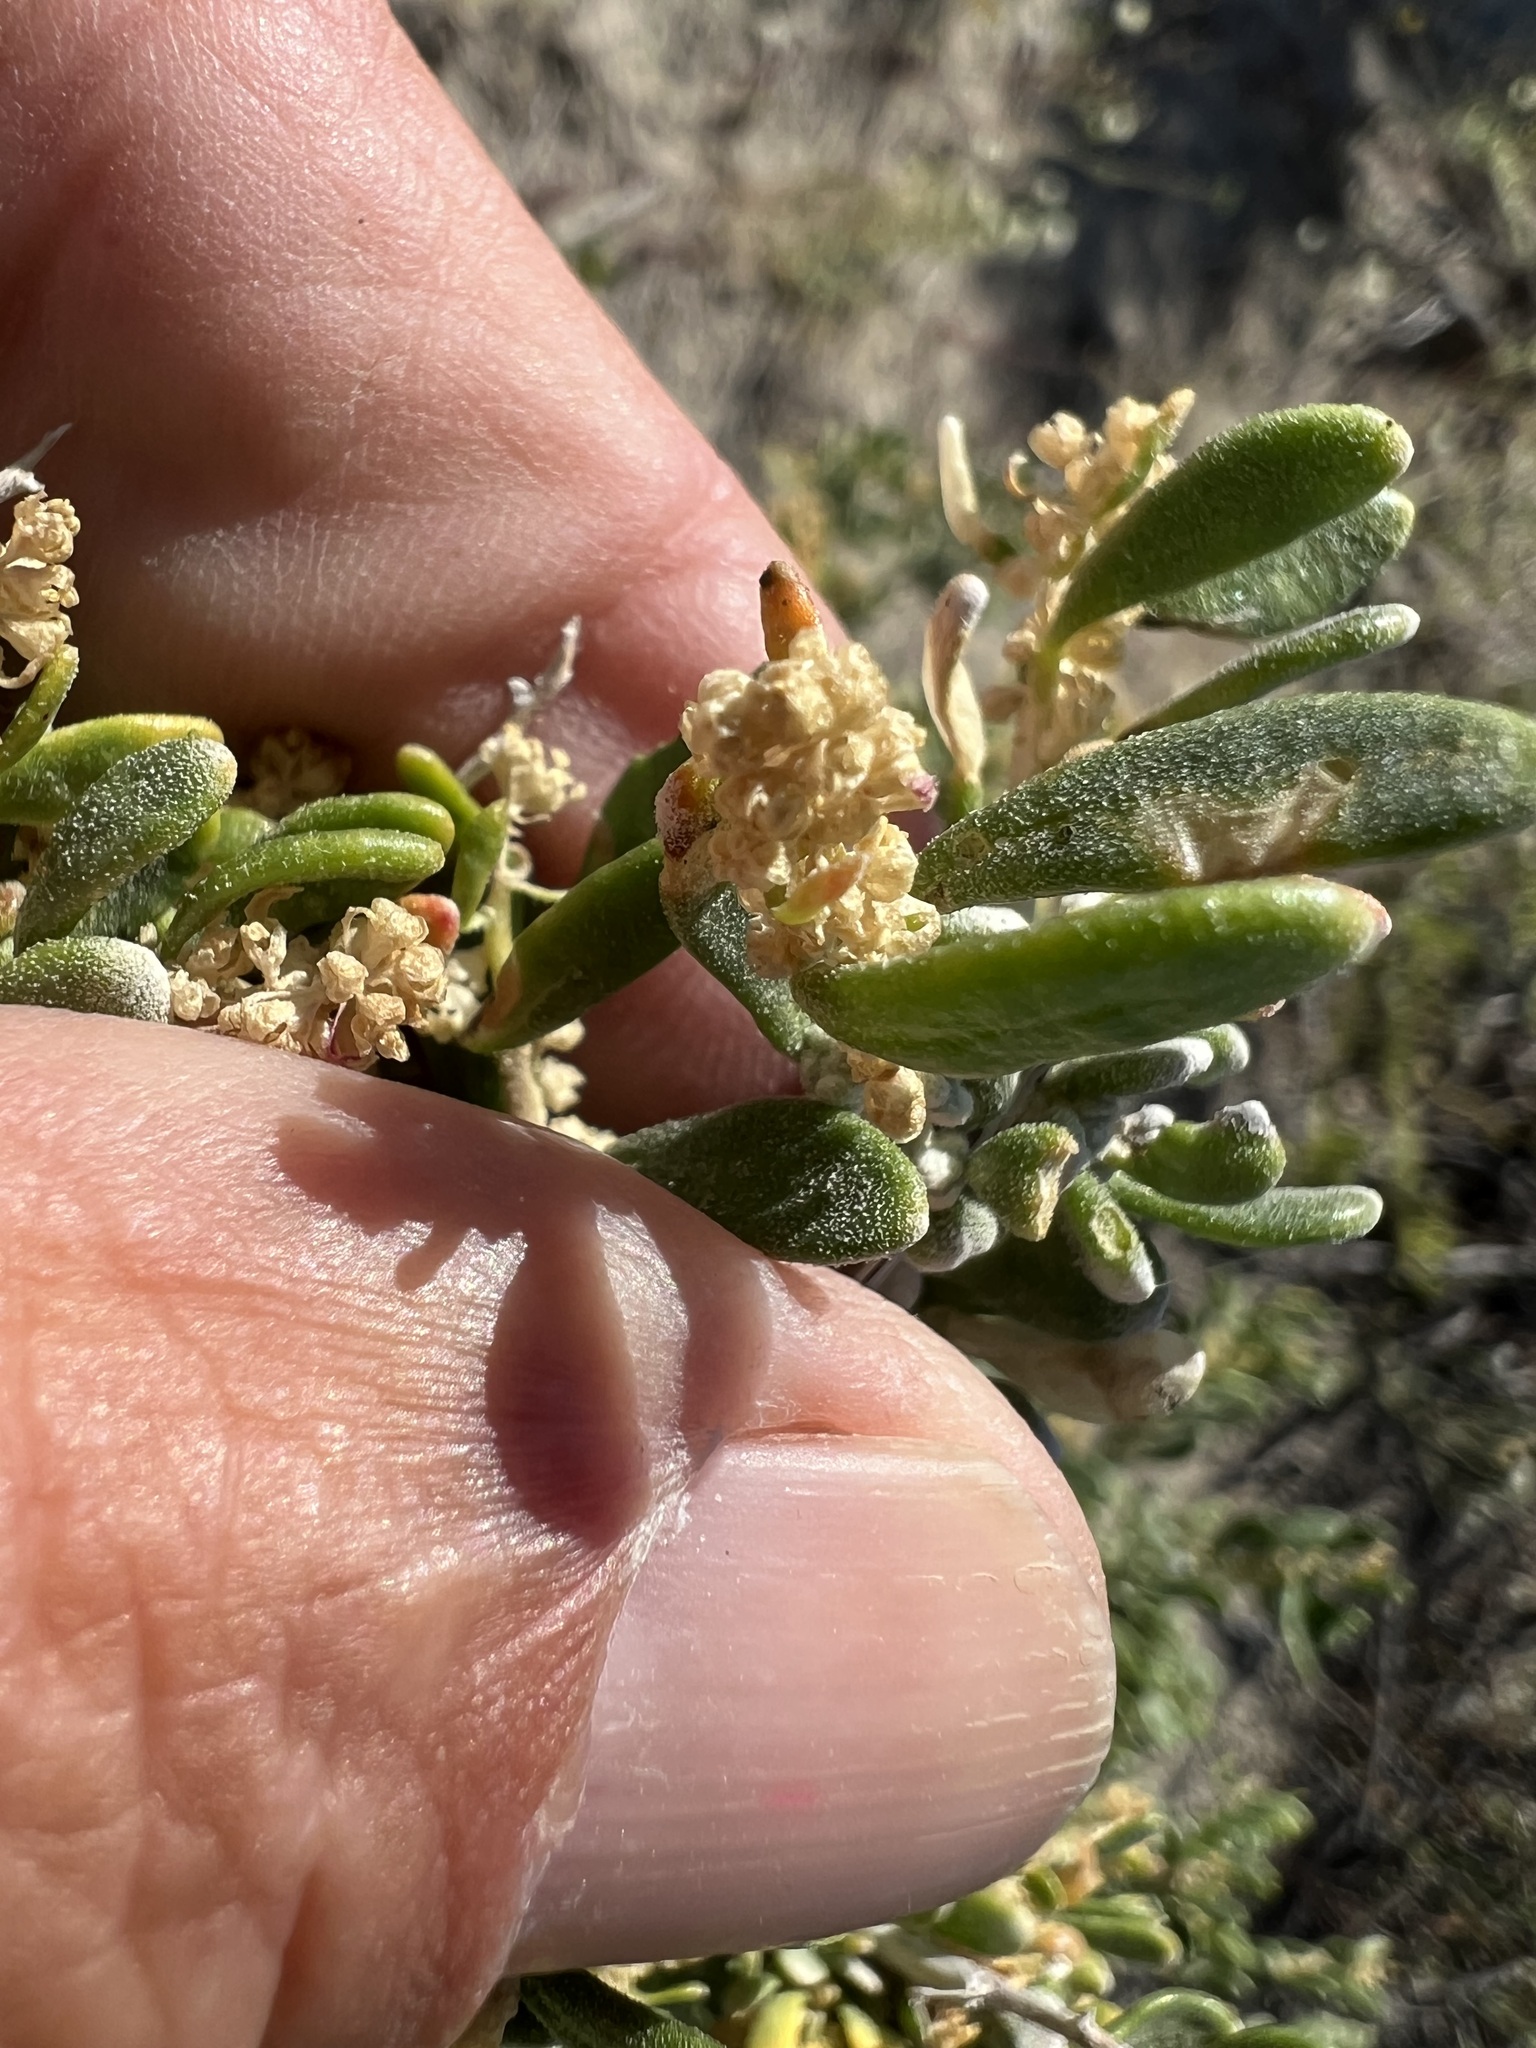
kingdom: Plantae
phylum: Tracheophyta
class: Magnoliopsida
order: Caryophyllales
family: Amaranthaceae
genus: Grayia
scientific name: Grayia spinosa
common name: Spiny hopsage
